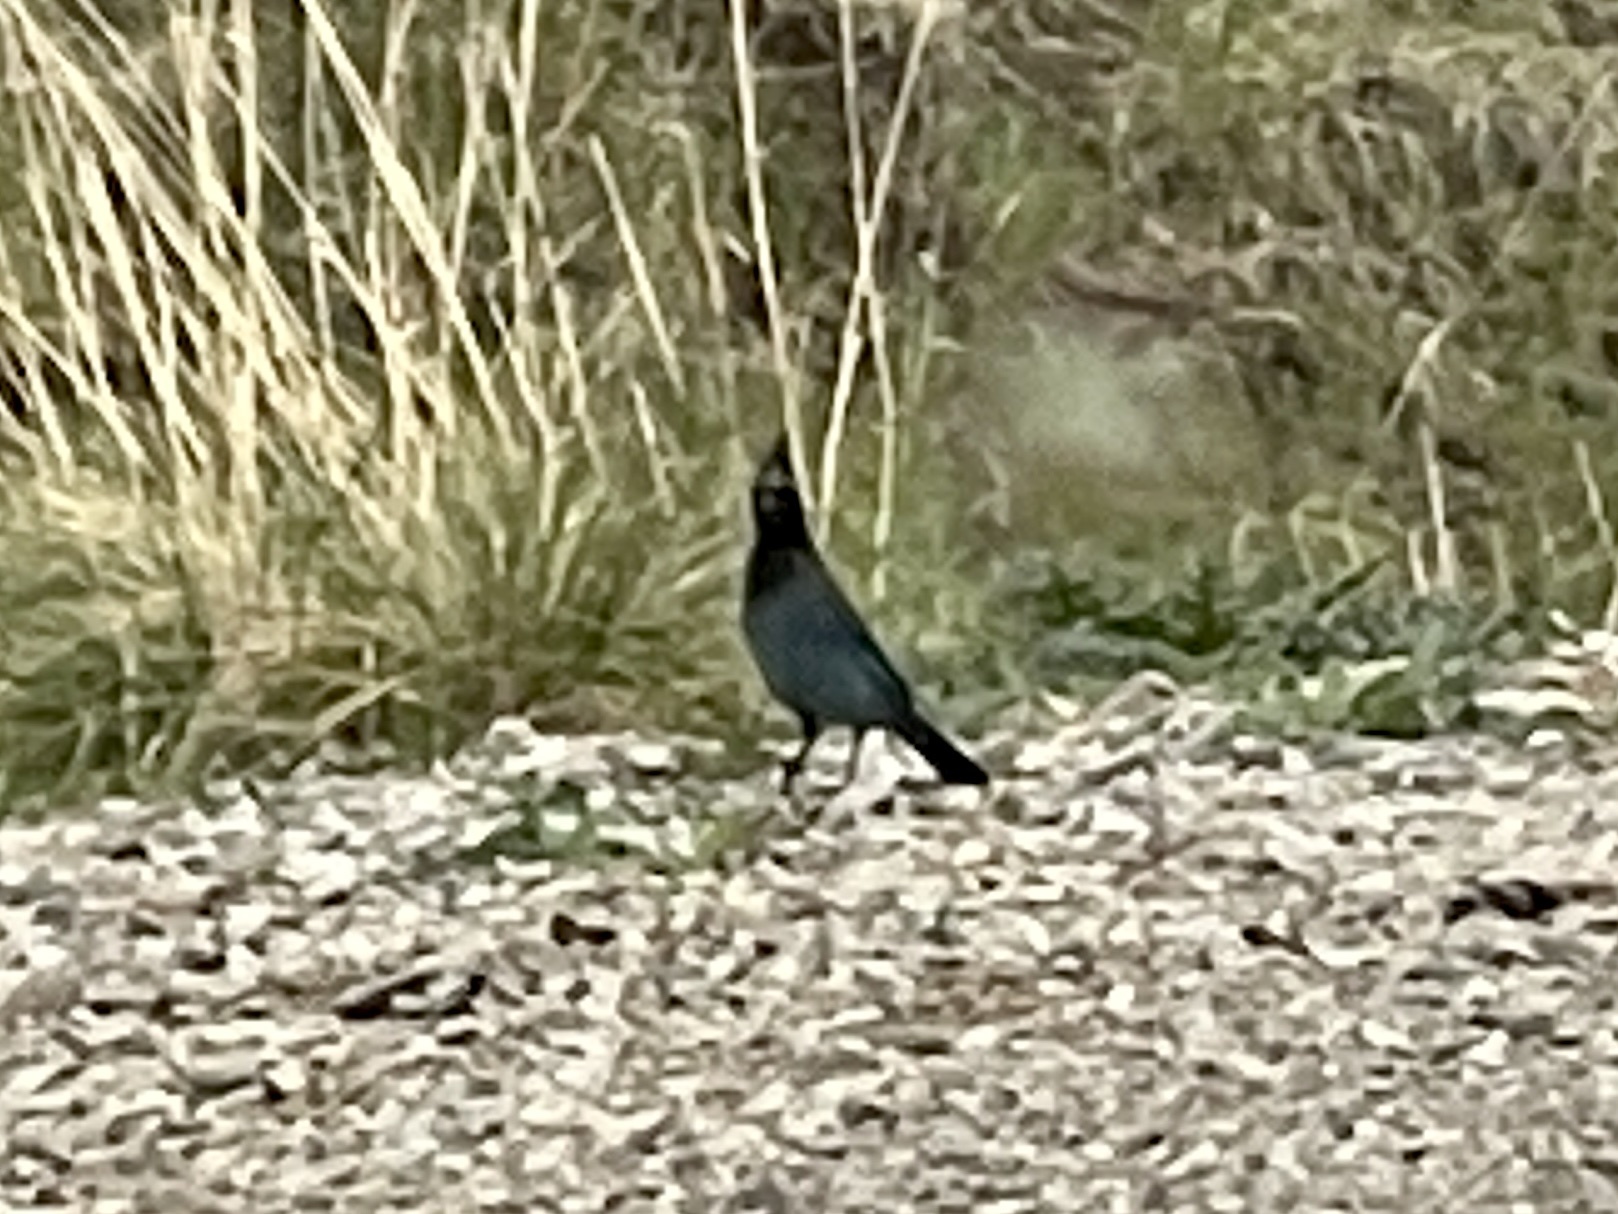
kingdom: Animalia
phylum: Chordata
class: Aves
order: Passeriformes
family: Corvidae
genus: Cyanocitta
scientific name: Cyanocitta stelleri
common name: Steller's jay
